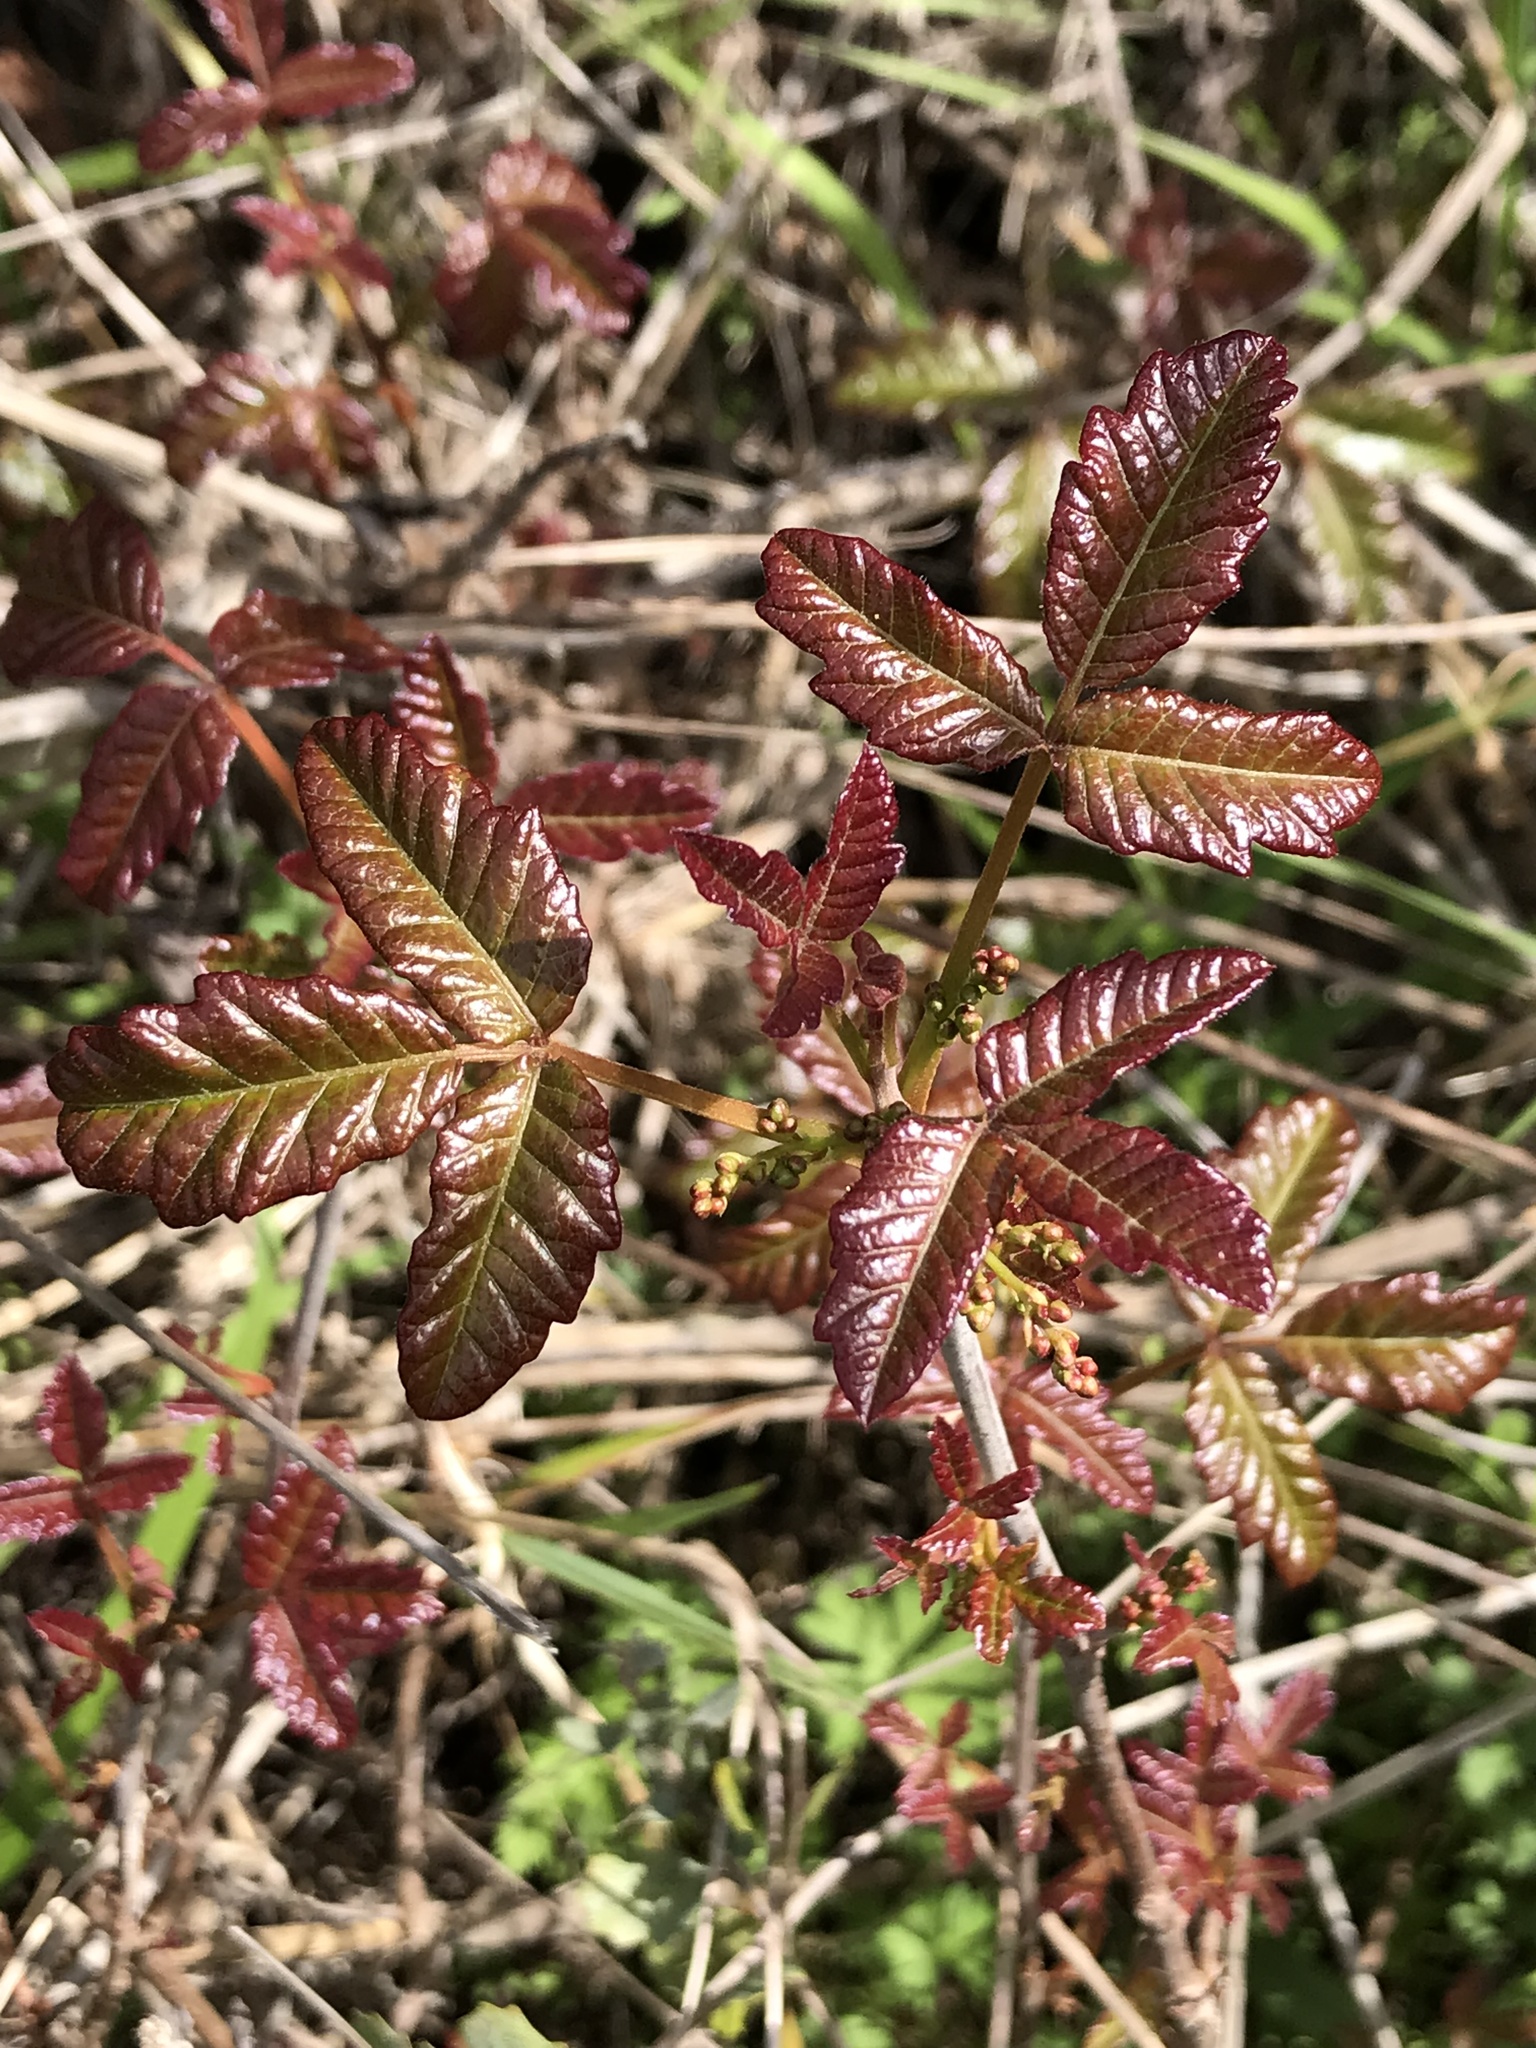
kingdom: Plantae
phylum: Tracheophyta
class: Magnoliopsida
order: Sapindales
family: Anacardiaceae
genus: Toxicodendron
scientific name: Toxicodendron diversilobum
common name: Pacific poison-oak
